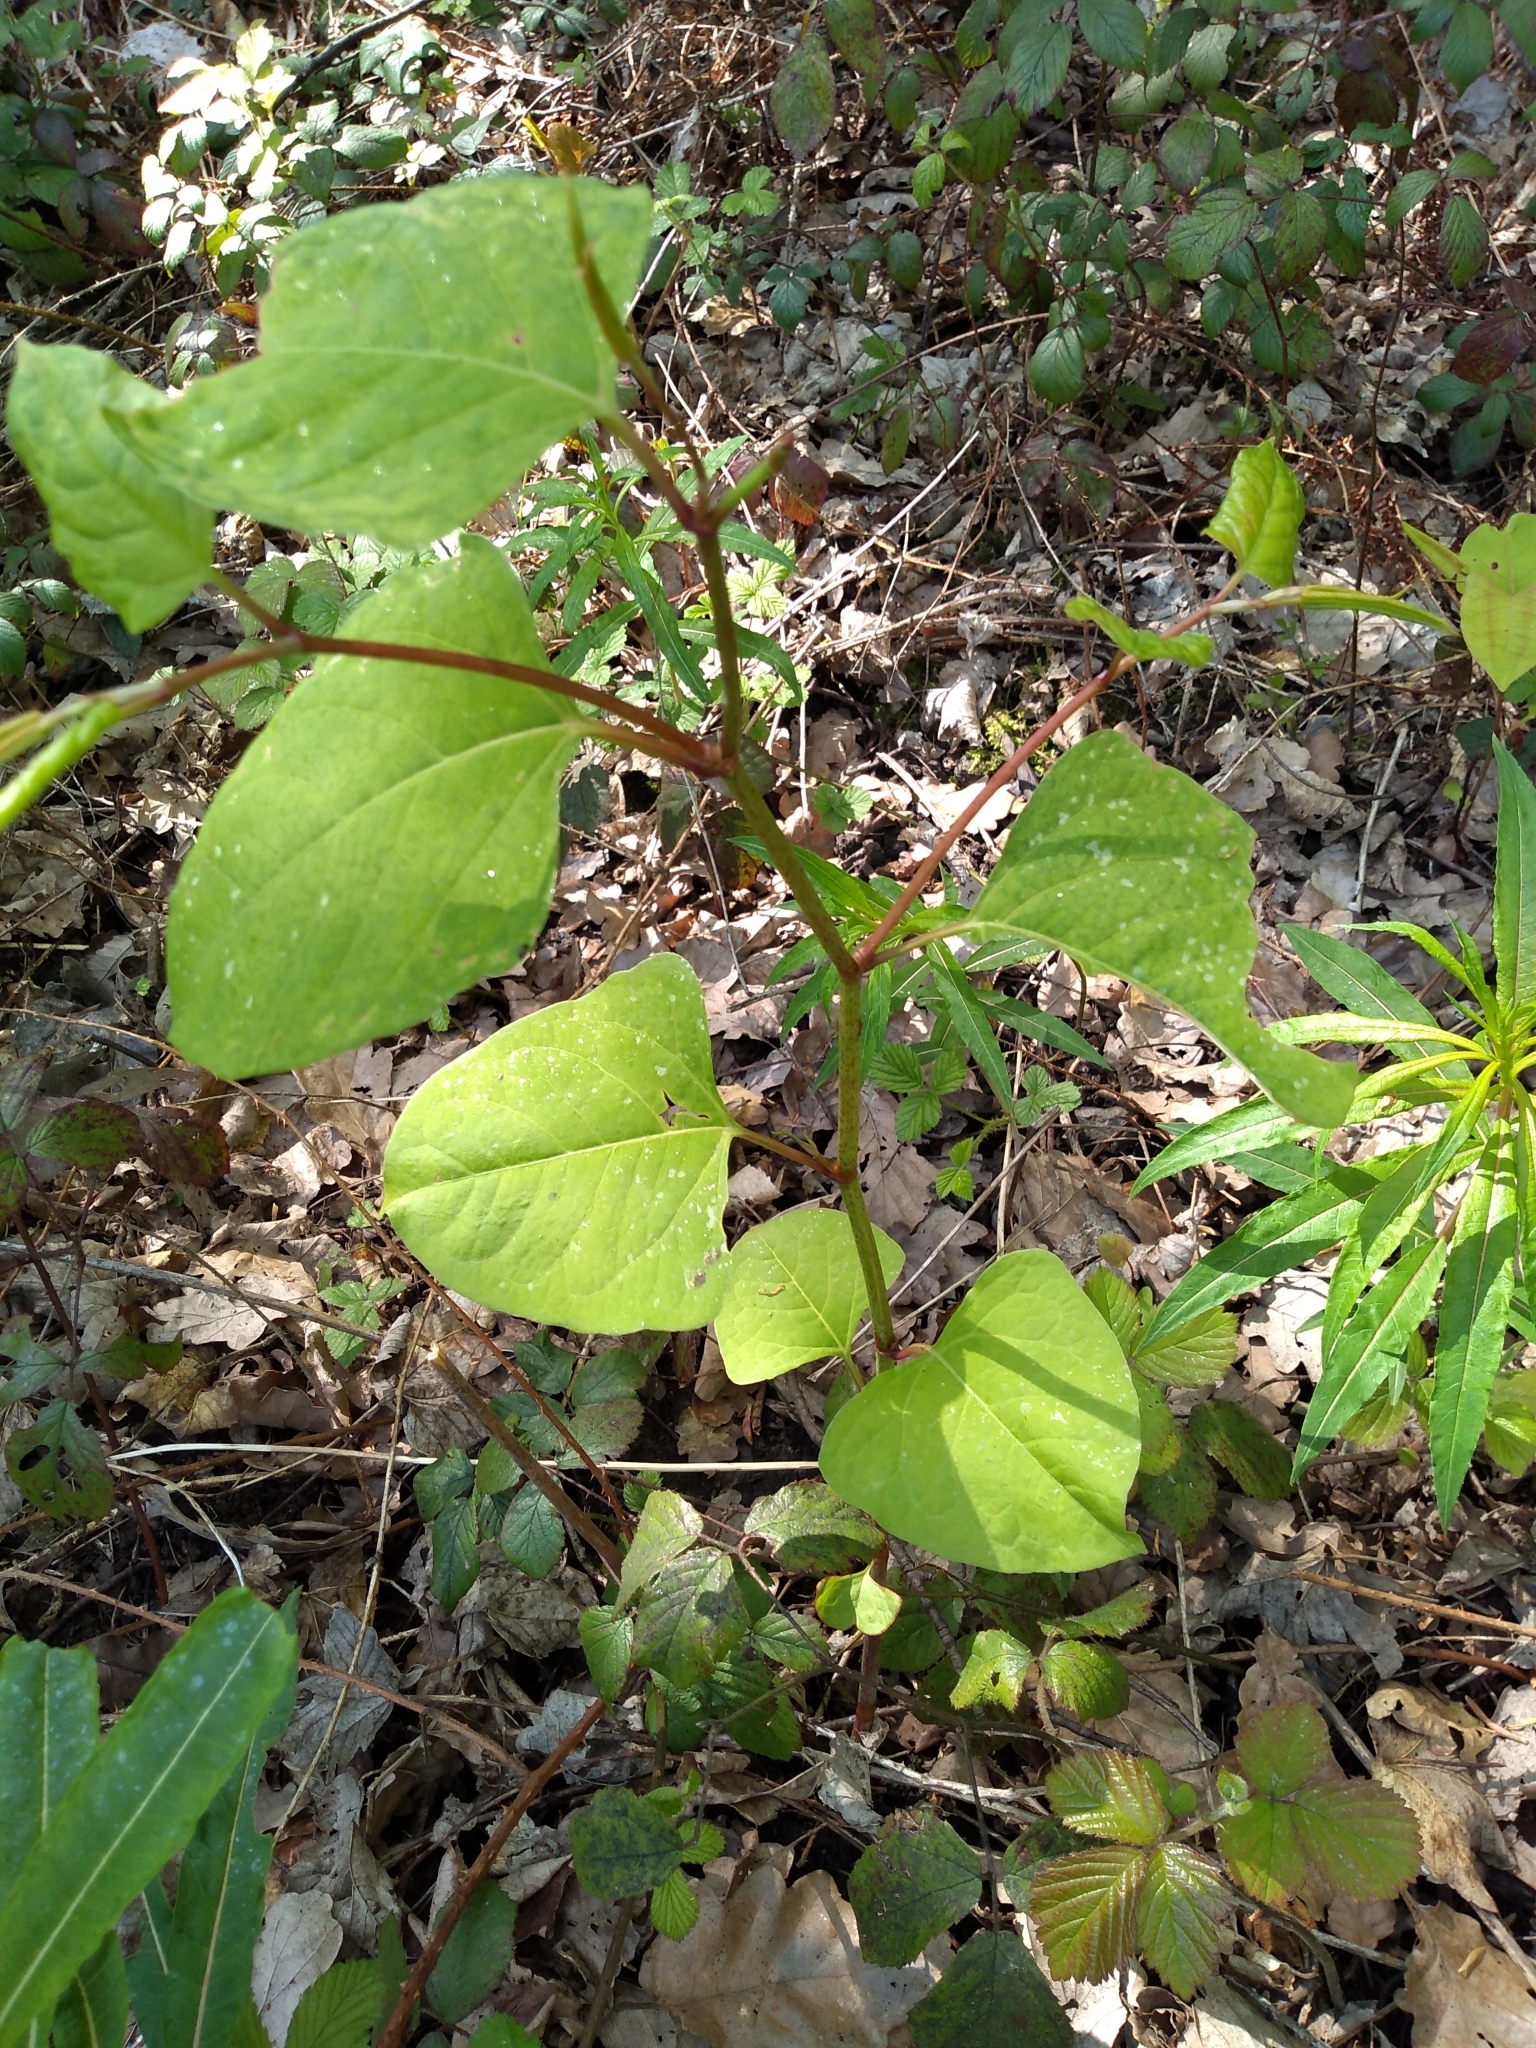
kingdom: Plantae
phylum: Tracheophyta
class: Magnoliopsida
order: Caryophyllales
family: Polygonaceae
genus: Reynoutria
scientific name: Reynoutria japonica
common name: Japanese knotweed
